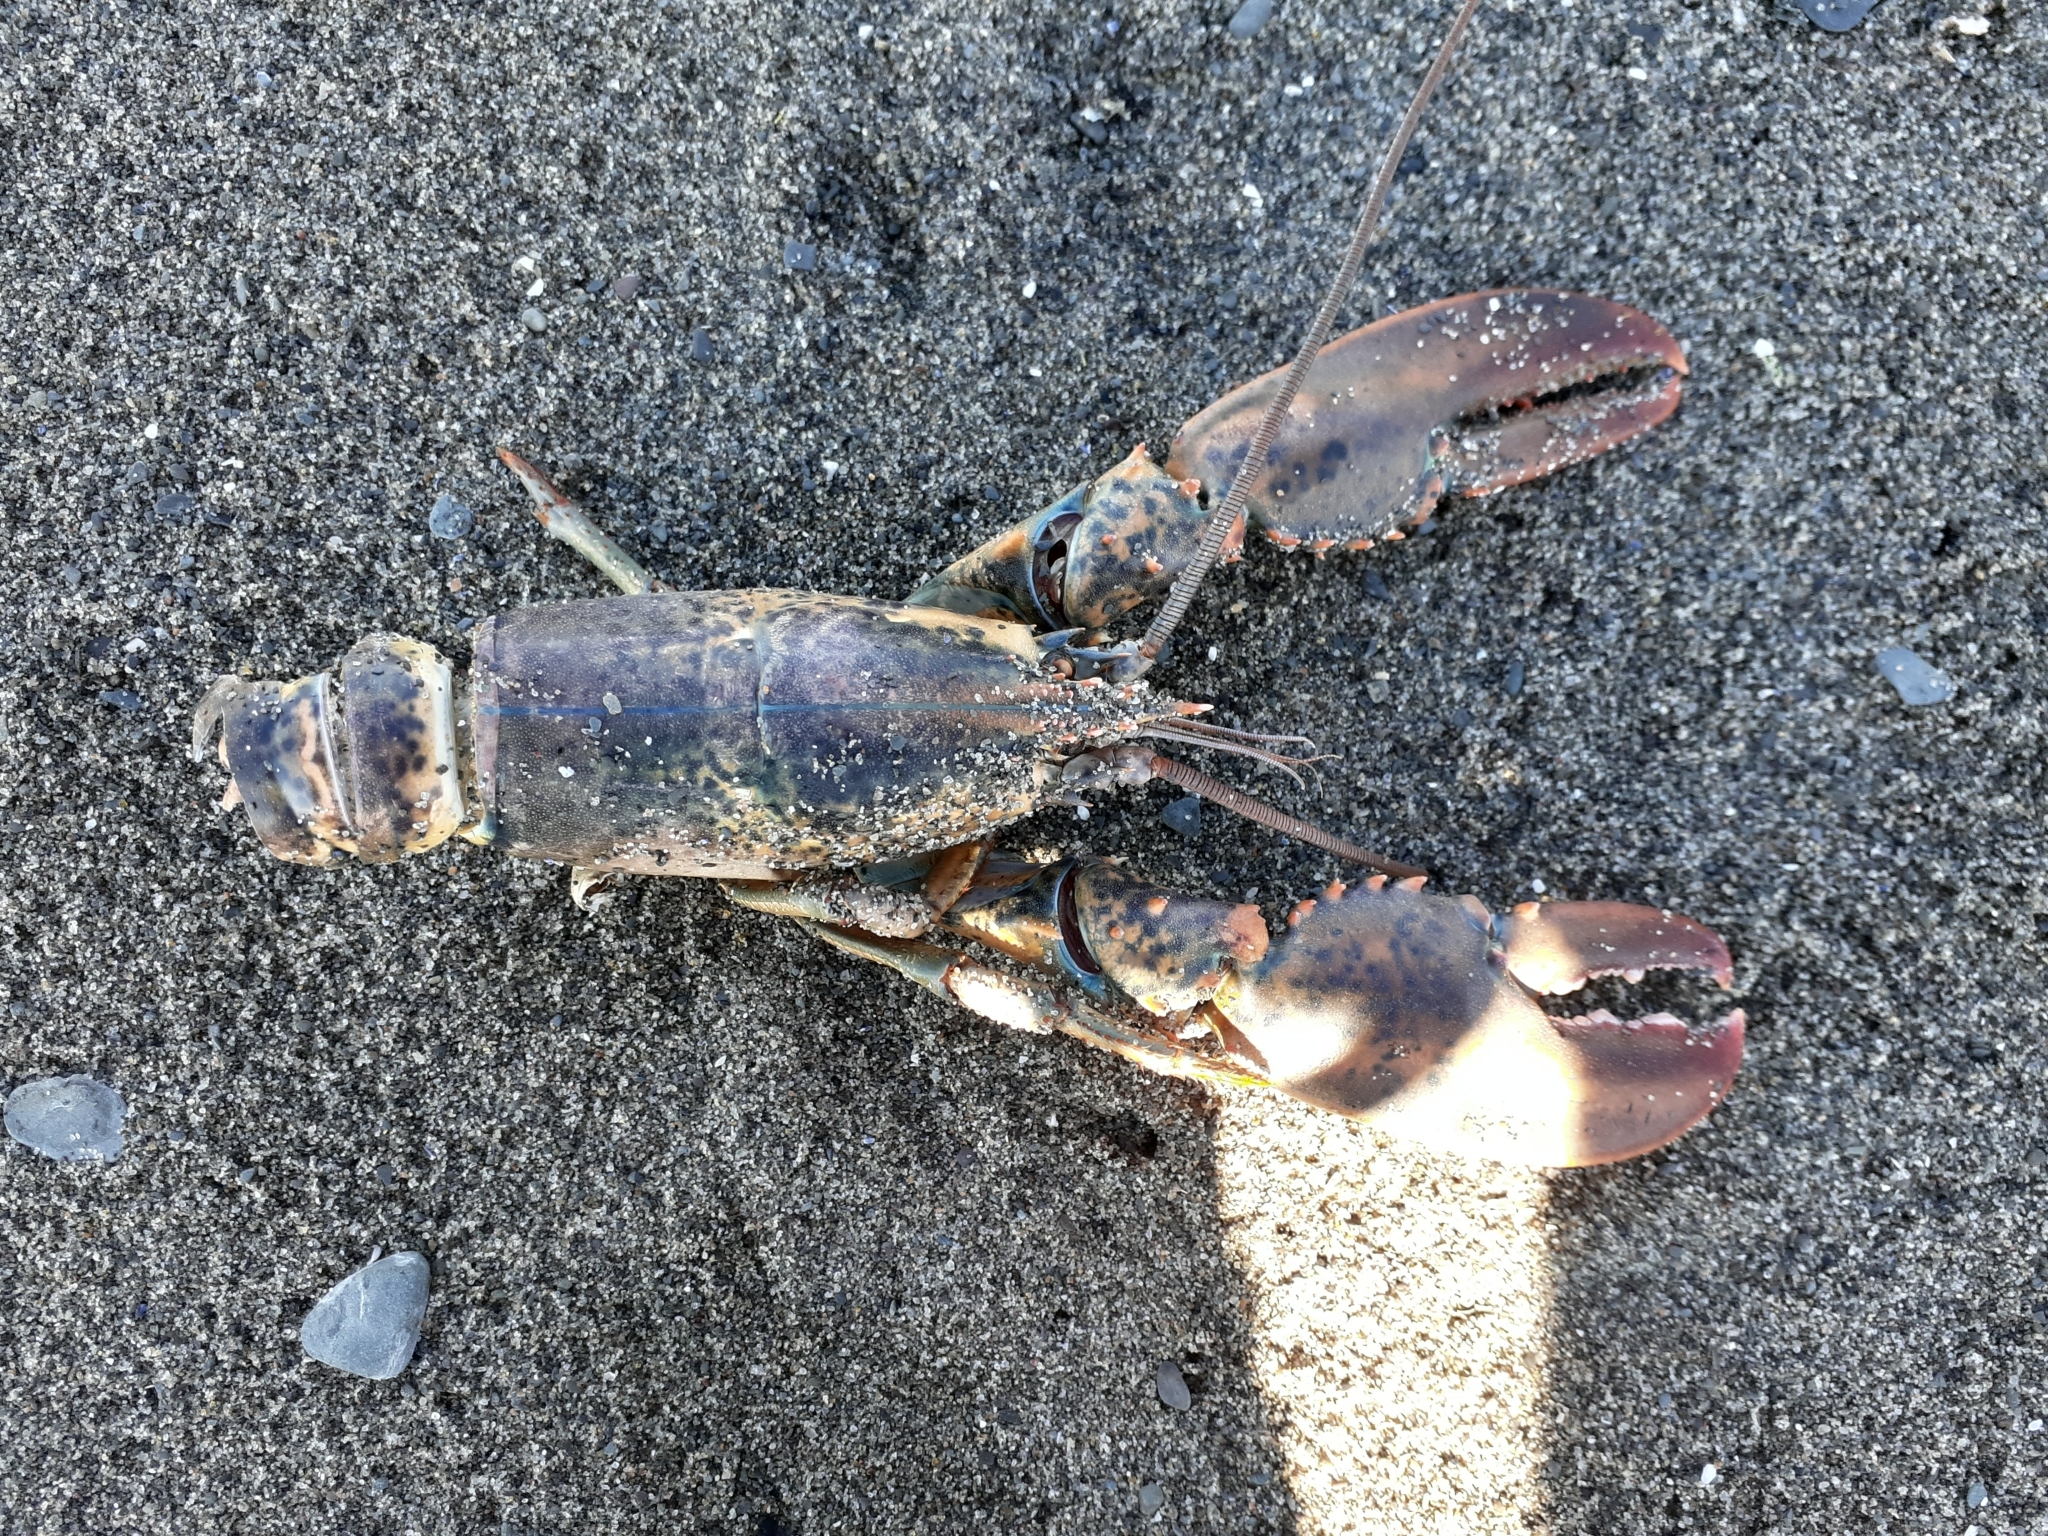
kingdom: Animalia
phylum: Arthropoda
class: Malacostraca
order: Decapoda
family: Nephropidae
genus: Homarus
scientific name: Homarus americanus
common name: American lobster
